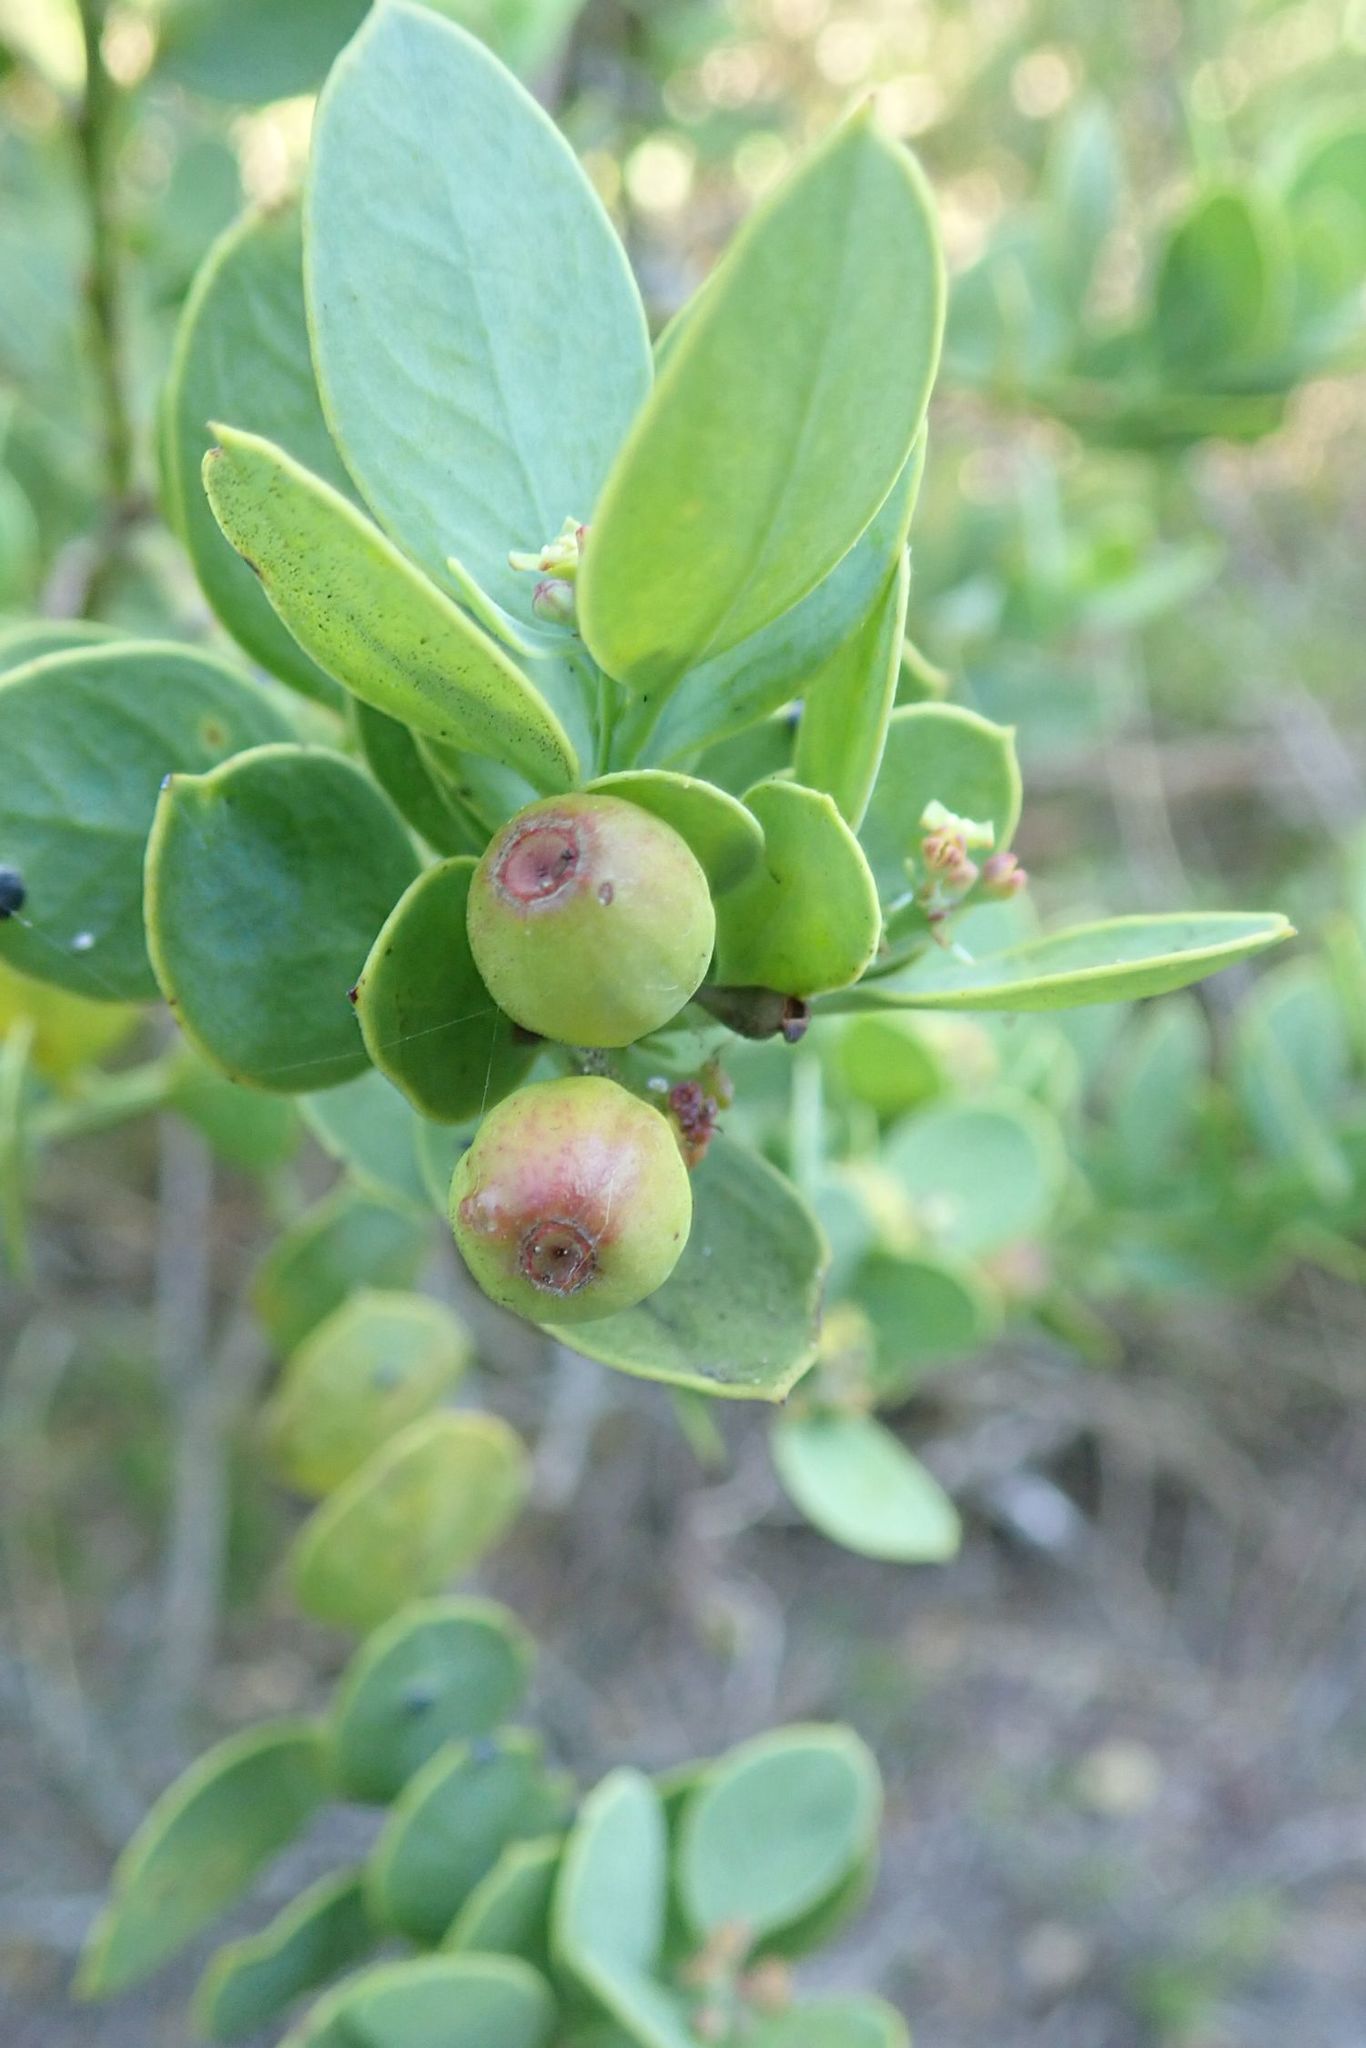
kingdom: Plantae
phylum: Tracheophyta
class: Magnoliopsida
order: Santalales
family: Santalaceae
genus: Osyris
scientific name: Osyris compressa
